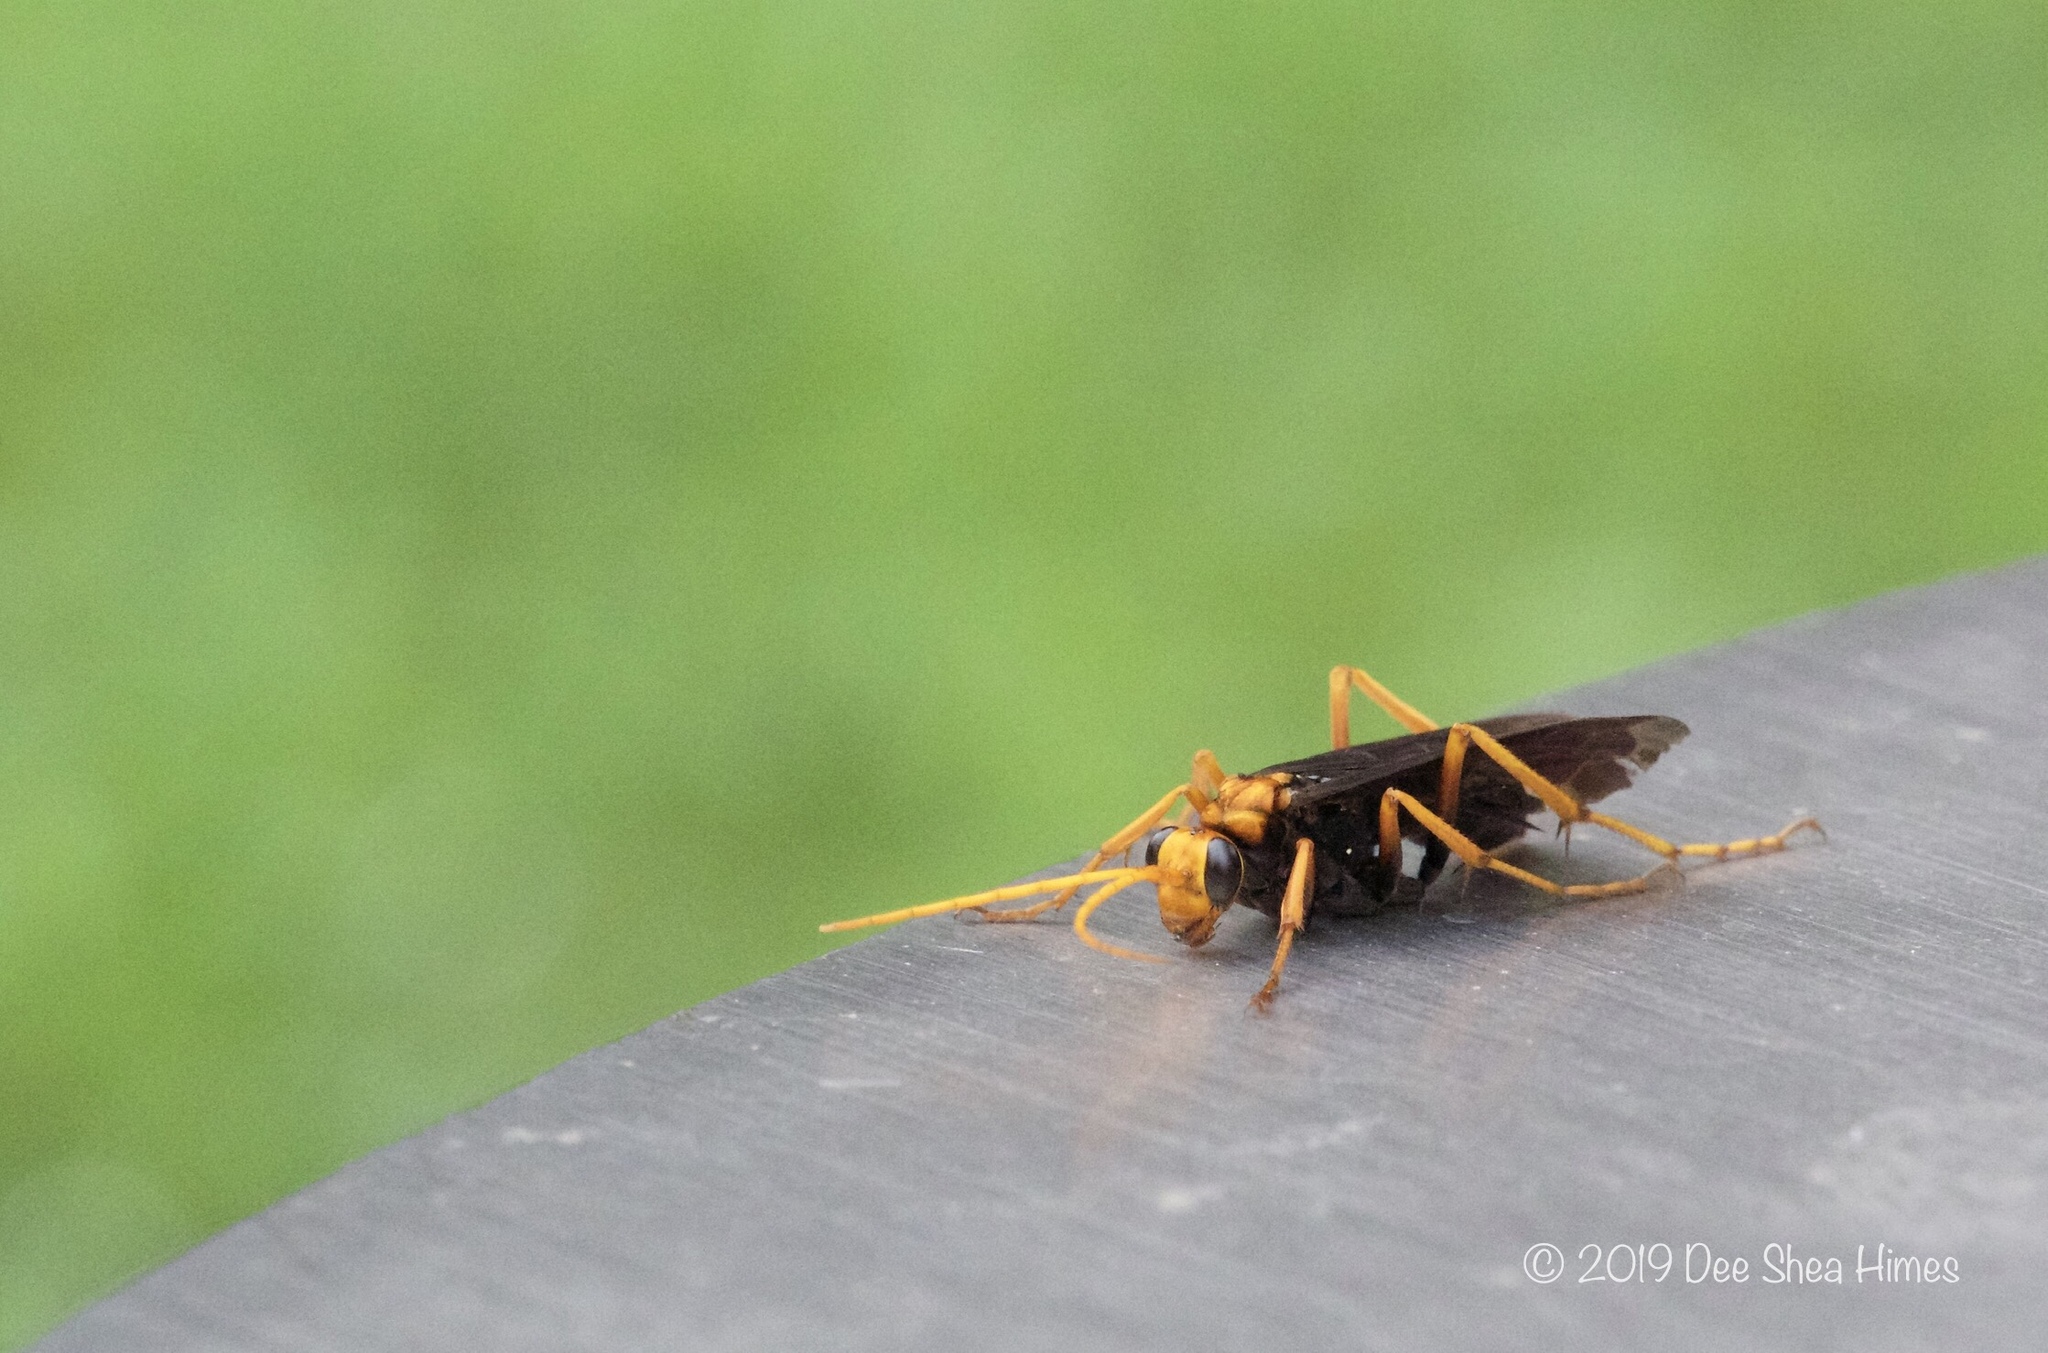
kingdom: Animalia
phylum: Arthropoda
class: Insecta
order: Hymenoptera
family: Pompilidae
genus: Cyphononyx
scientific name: Cyphononyx bipartitus
